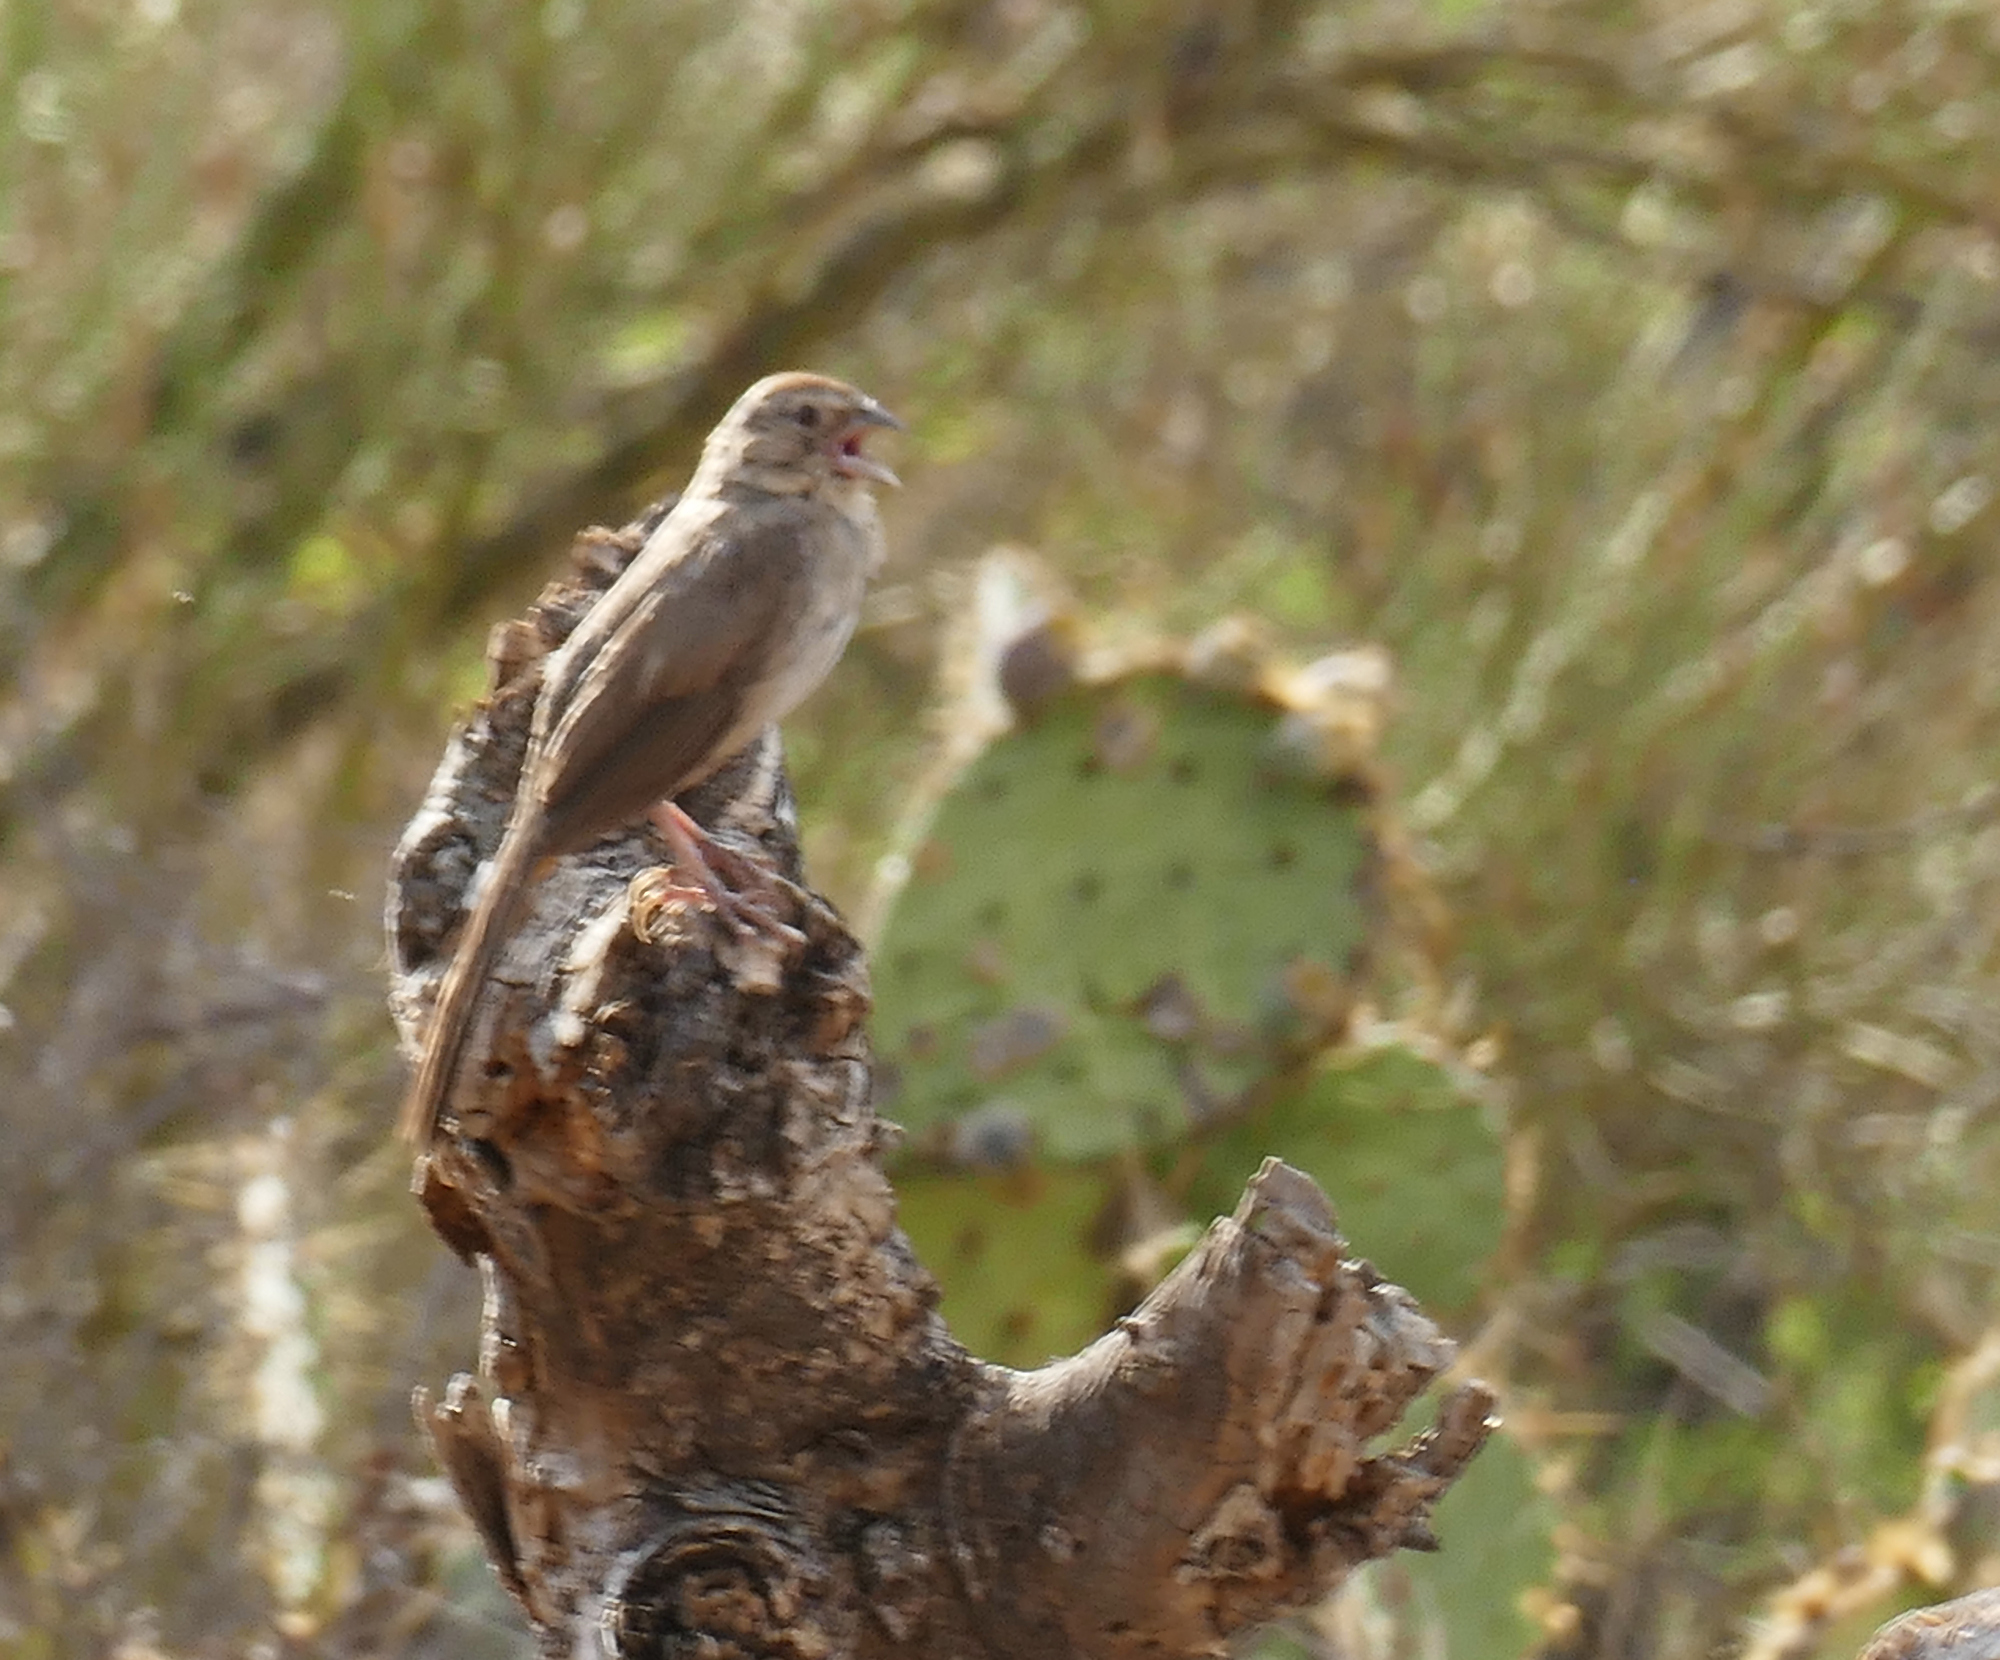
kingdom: Animalia
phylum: Chordata
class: Aves
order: Passeriformes
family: Passerellidae
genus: Melozone
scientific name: Melozone fusca
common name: Canyon towhee
